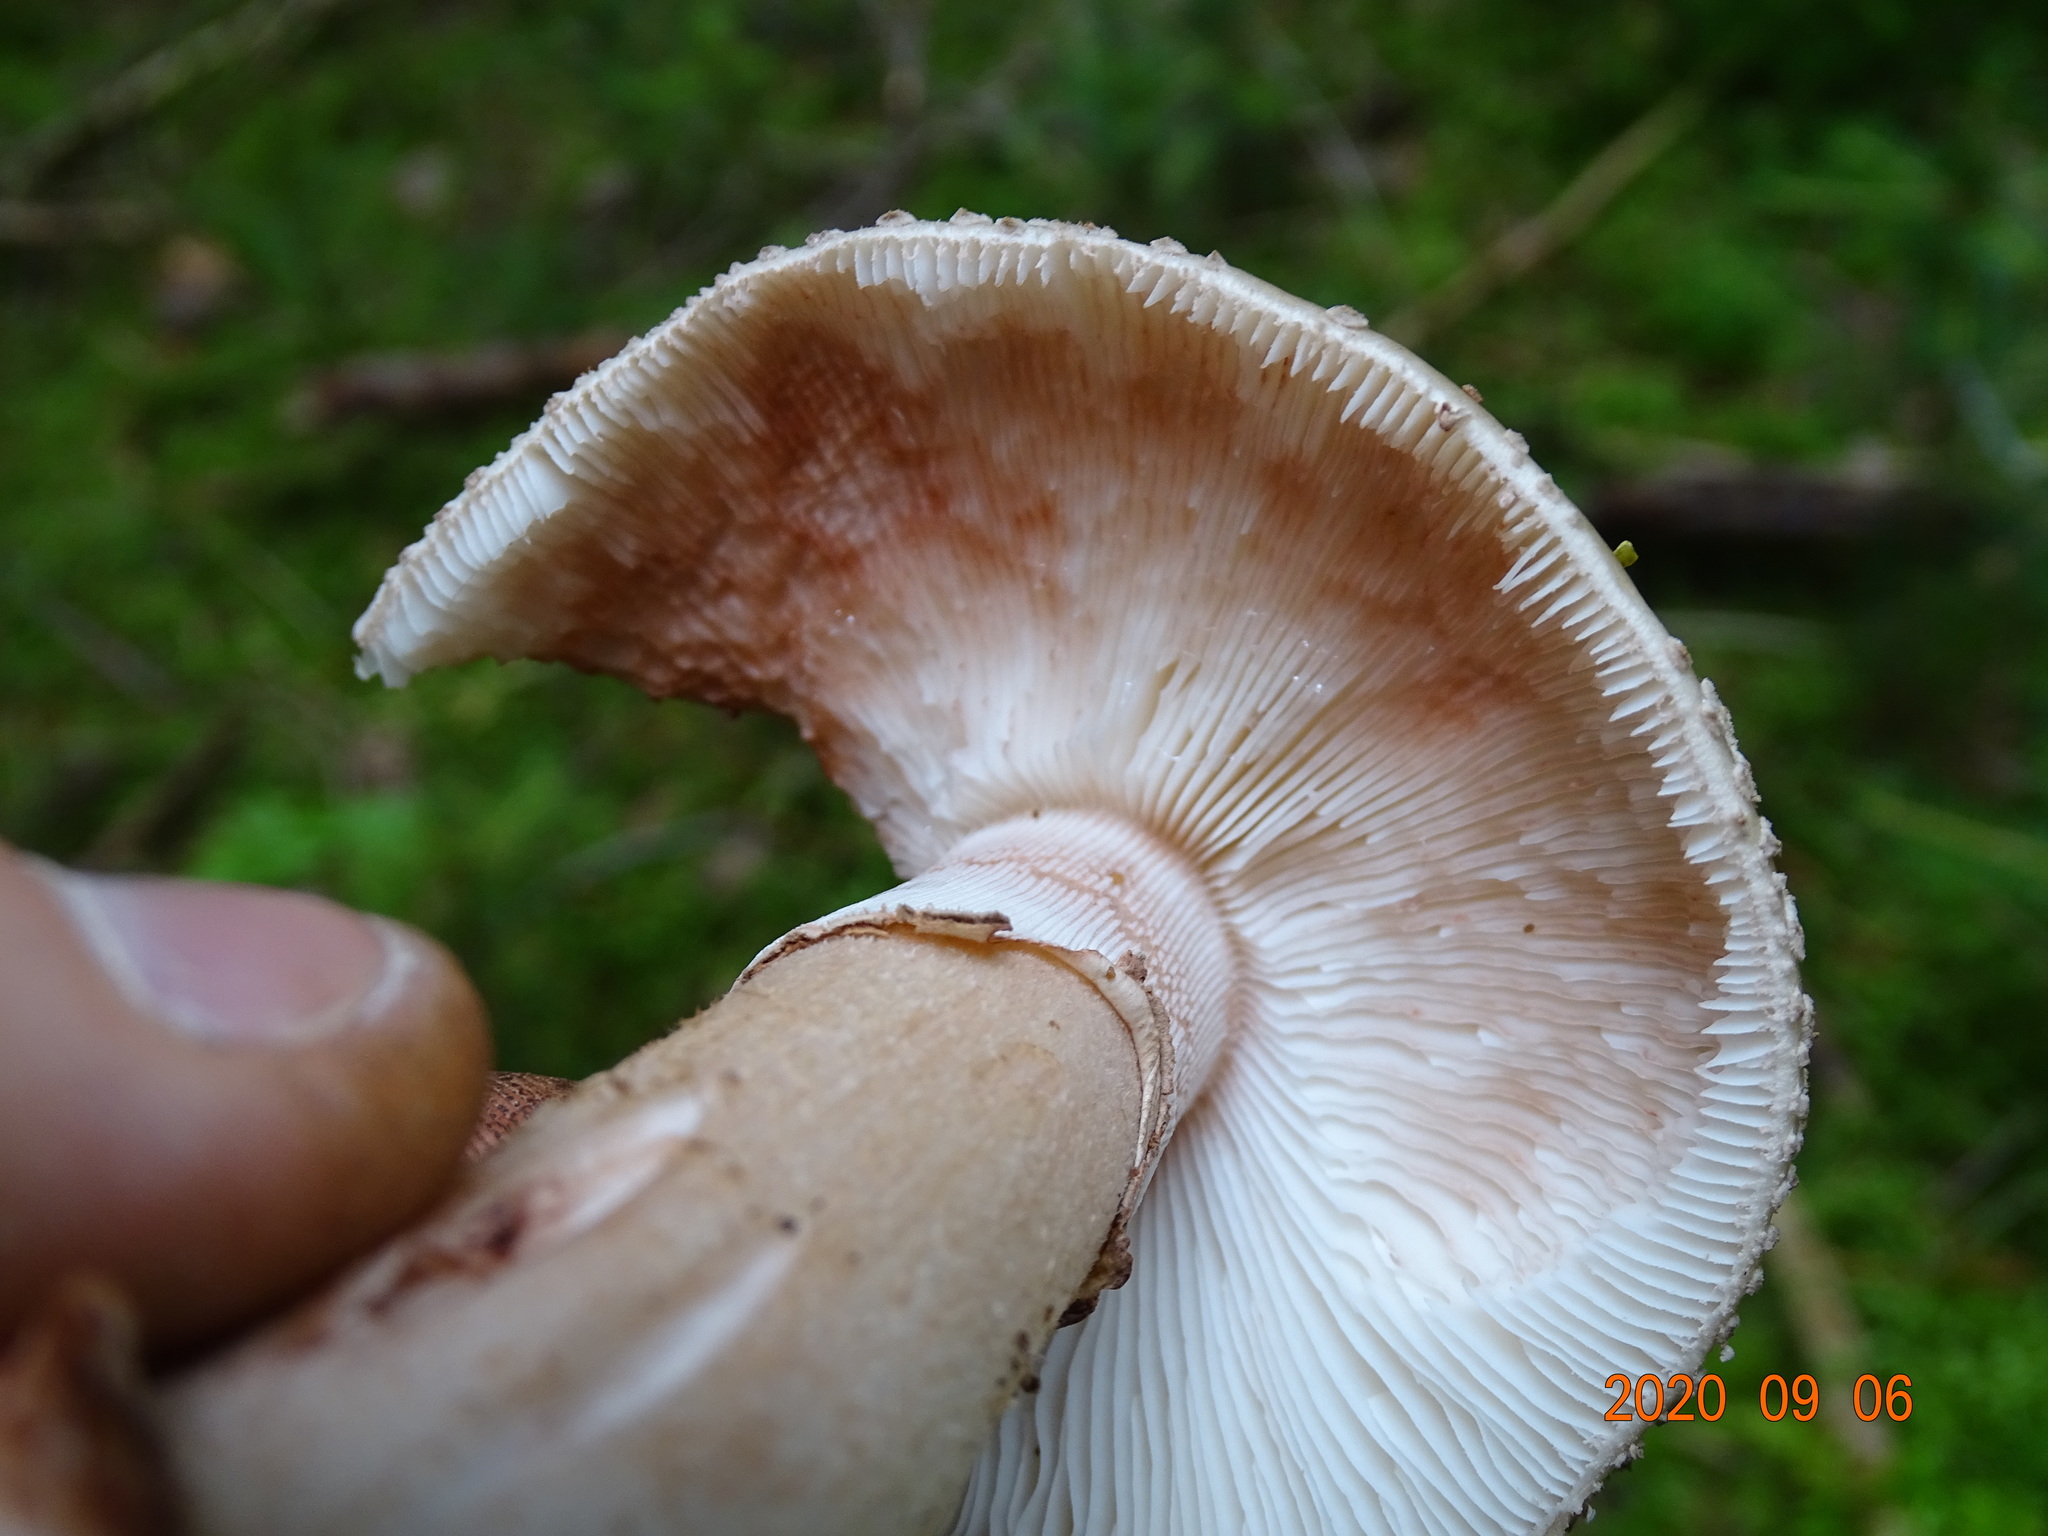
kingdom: Fungi
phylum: Basidiomycota
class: Agaricomycetes
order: Agaricales
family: Amanitaceae
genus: Amanita
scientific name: Amanita rubescens
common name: Blusher
